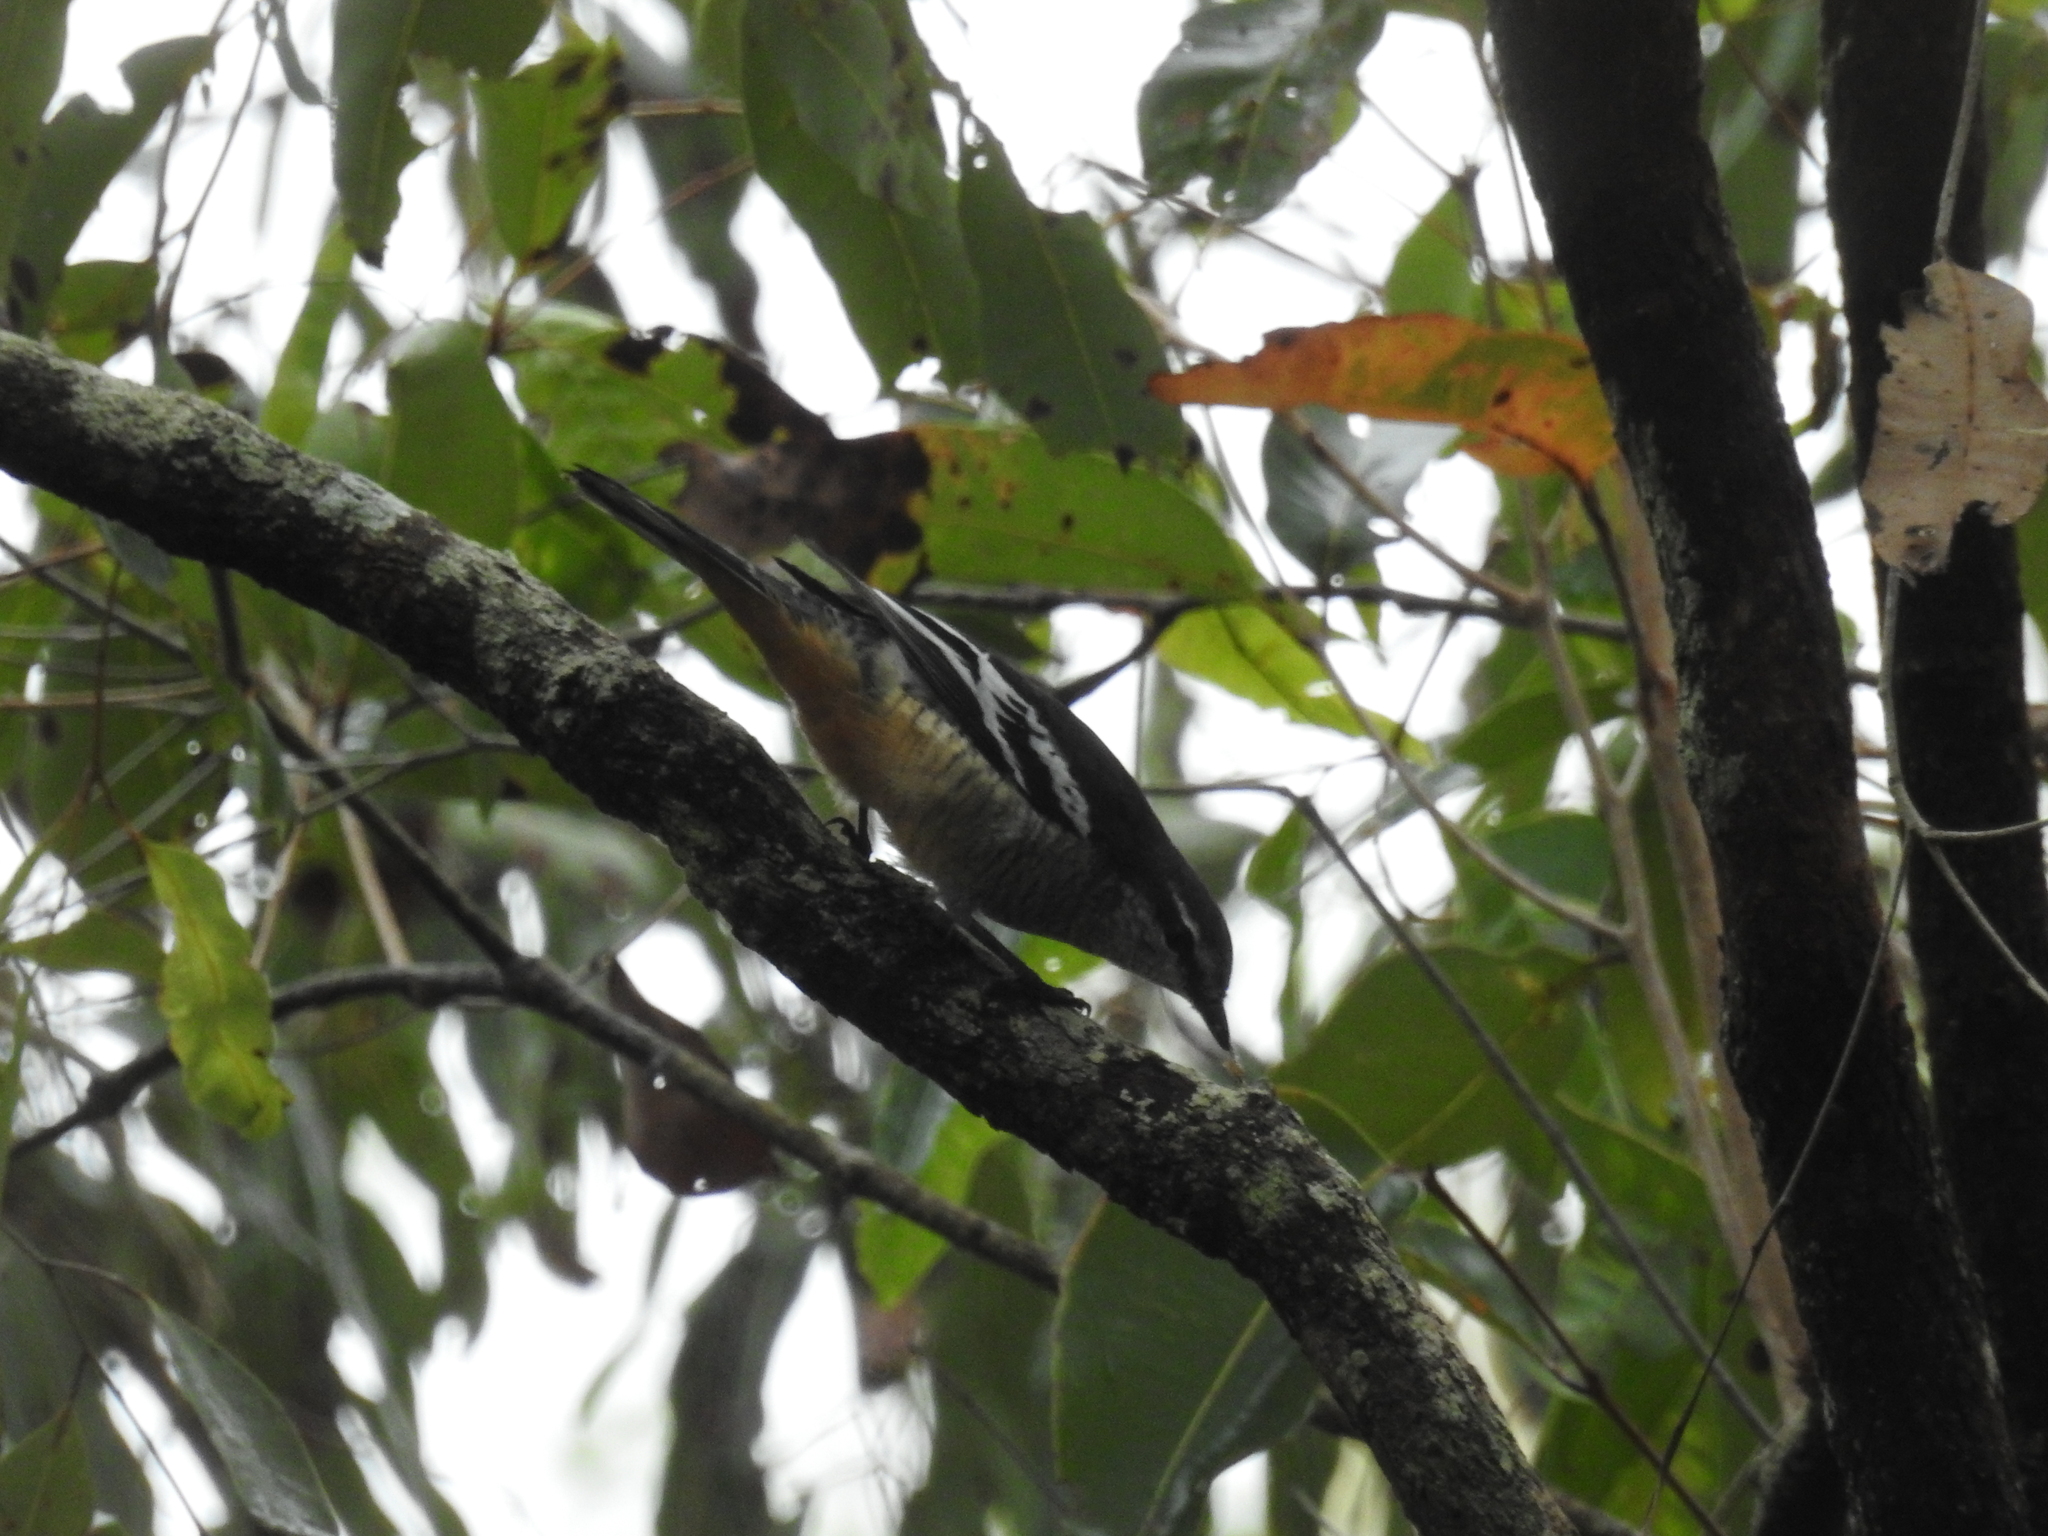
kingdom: Animalia
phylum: Chordata
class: Aves
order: Passeriformes
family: Campephagidae
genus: Lalage
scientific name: Lalage leucomela
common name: Varied triller
